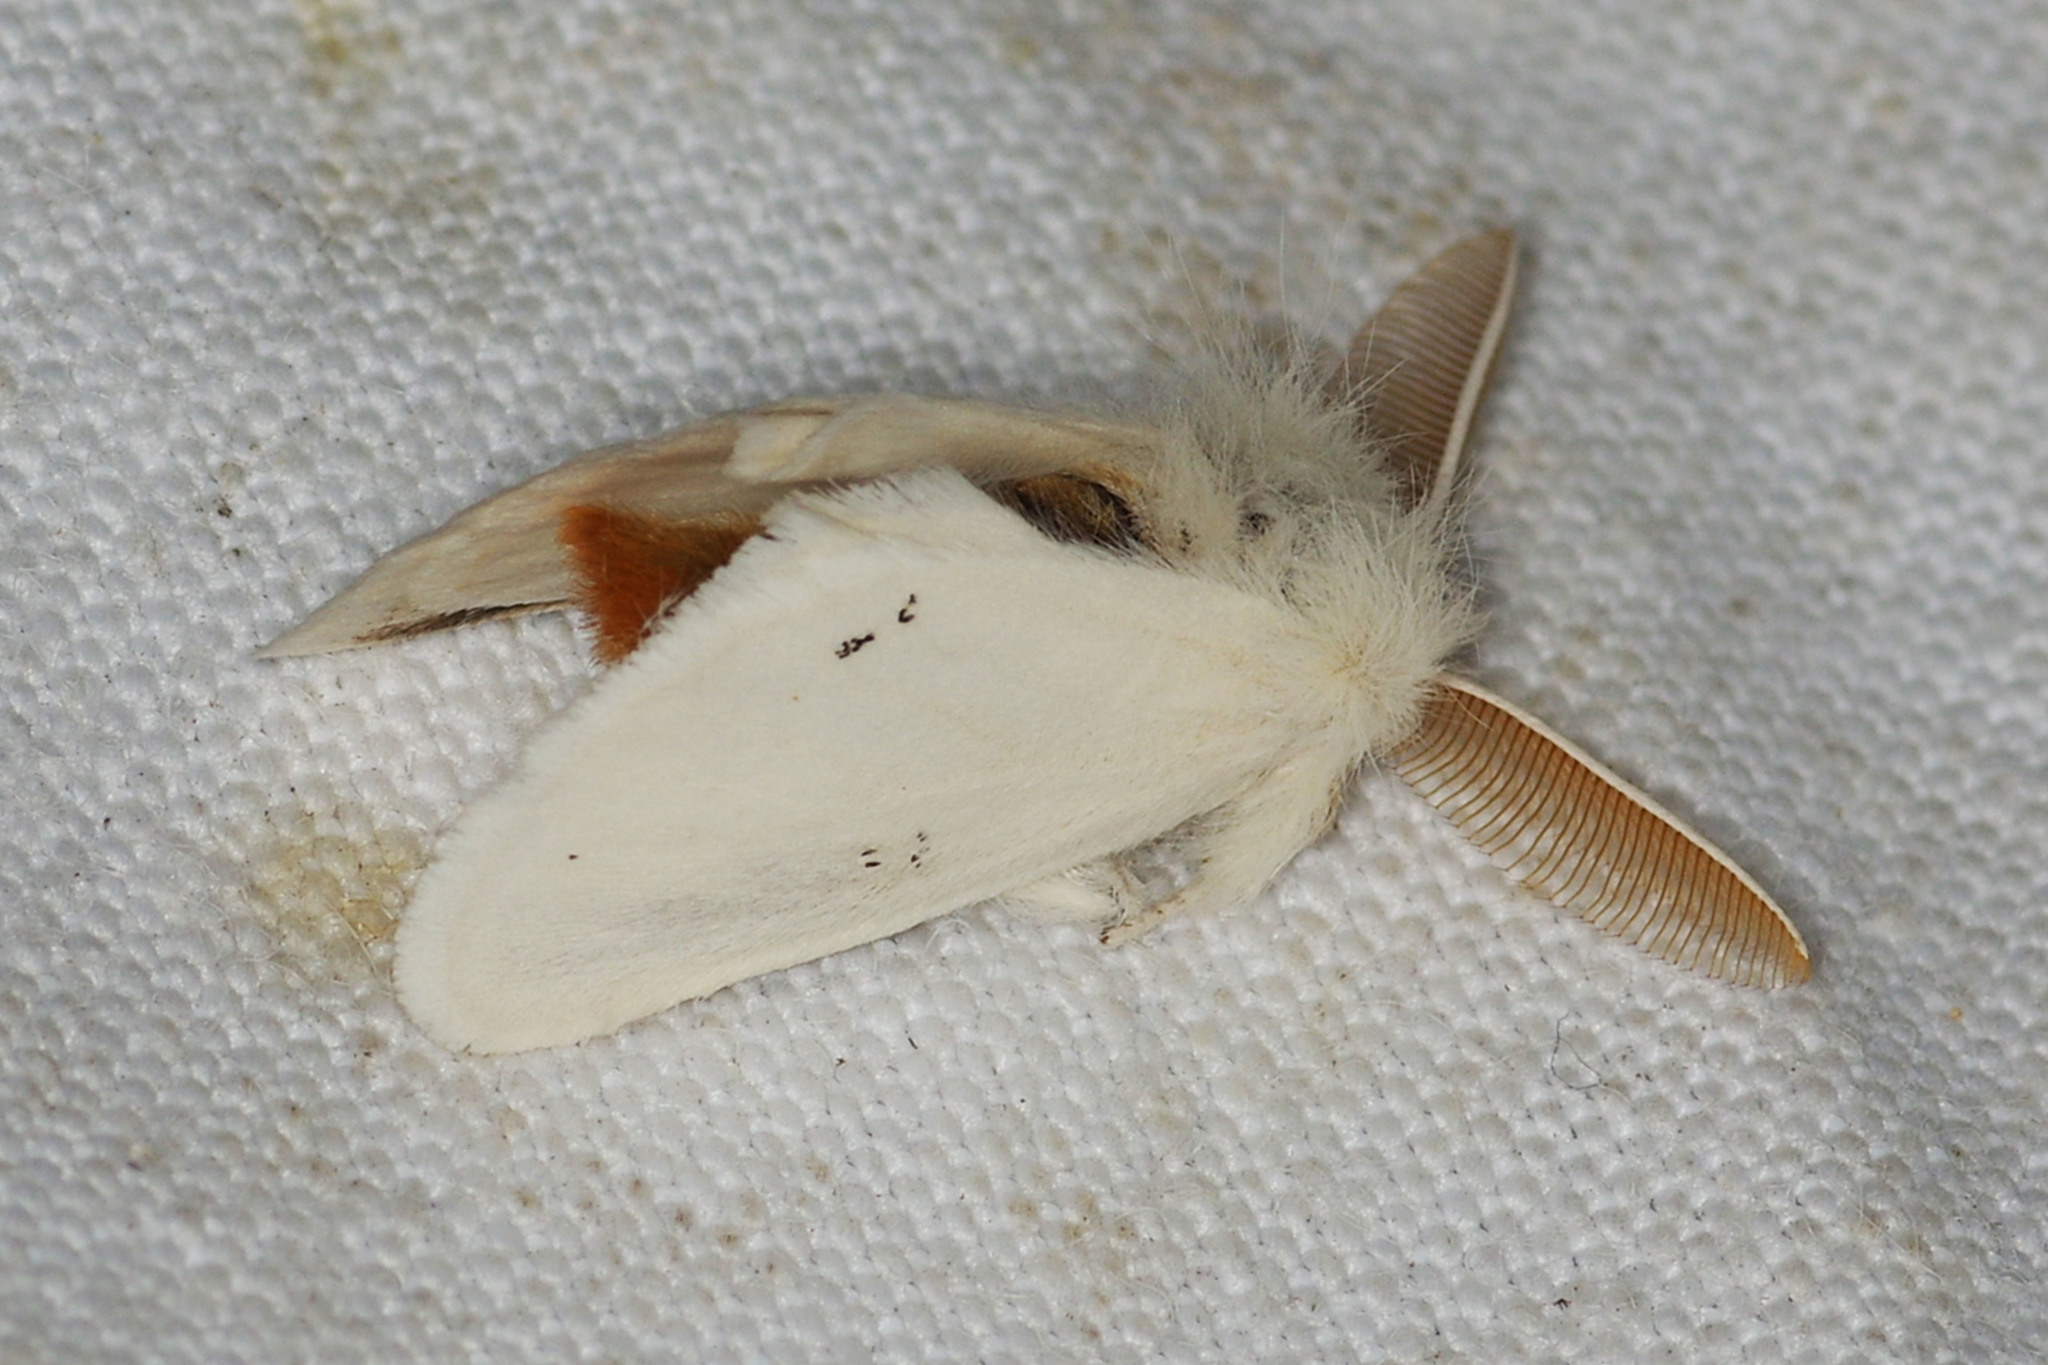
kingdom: Animalia
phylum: Arthropoda
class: Insecta
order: Lepidoptera
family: Erebidae
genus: Euproctis
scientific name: Euproctis chrysorrhoea
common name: Brown-tail
